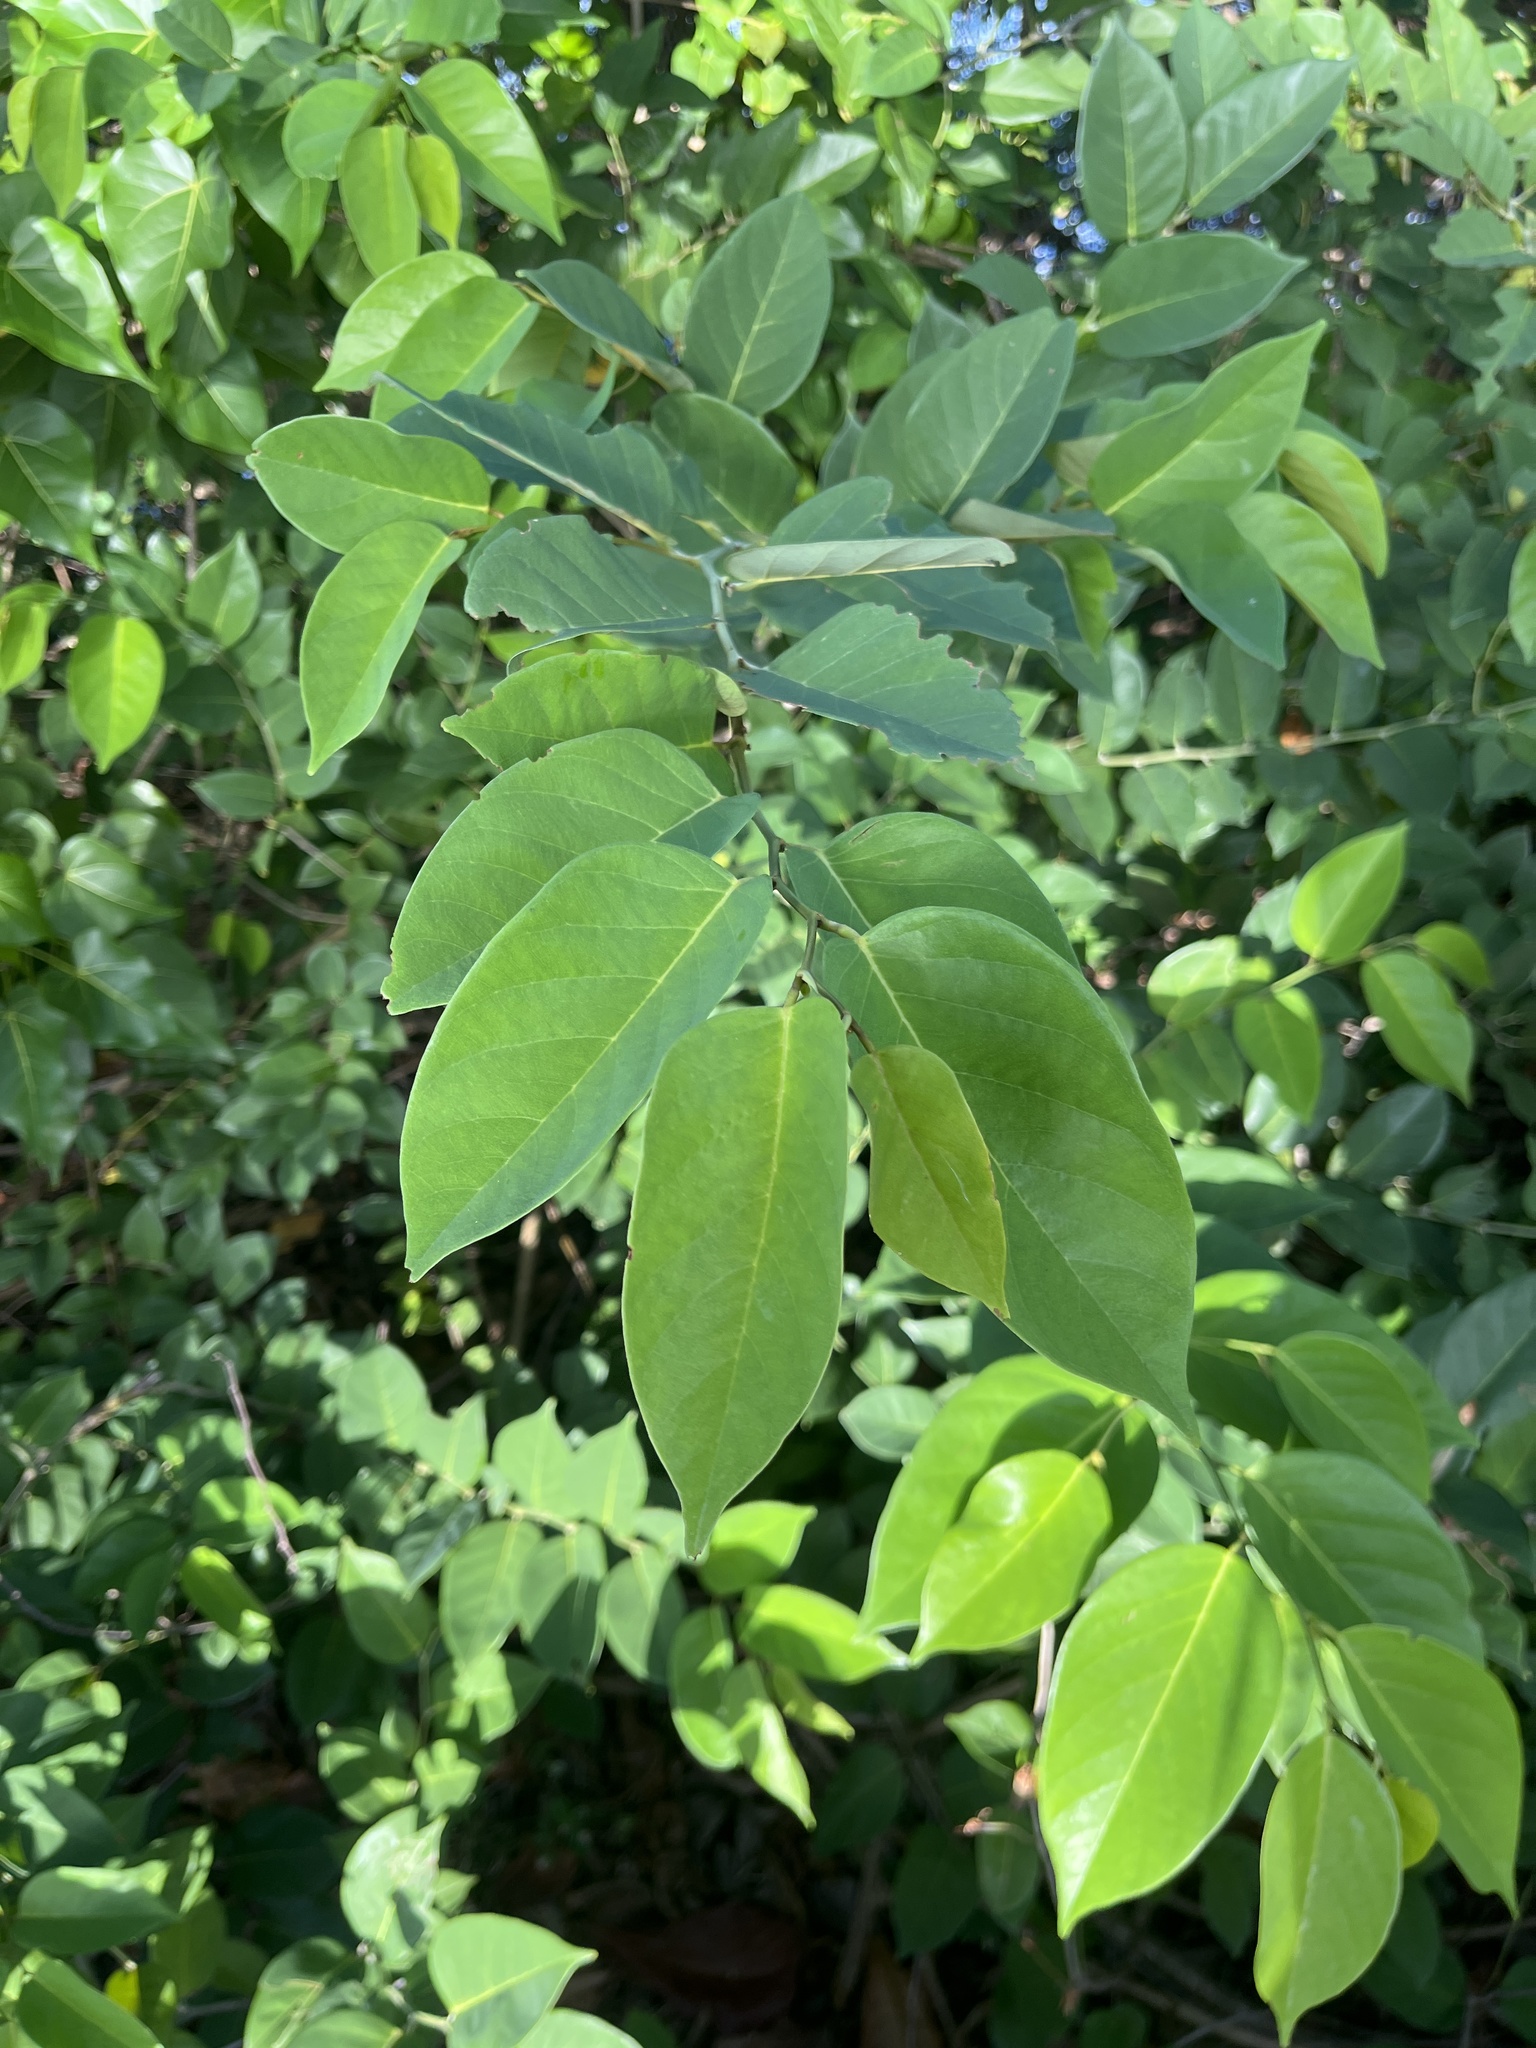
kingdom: Plantae
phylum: Tracheophyta
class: Magnoliopsida
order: Fabales
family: Fabaceae
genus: Dalbergia
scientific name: Dalbergia ecastaphyllum
